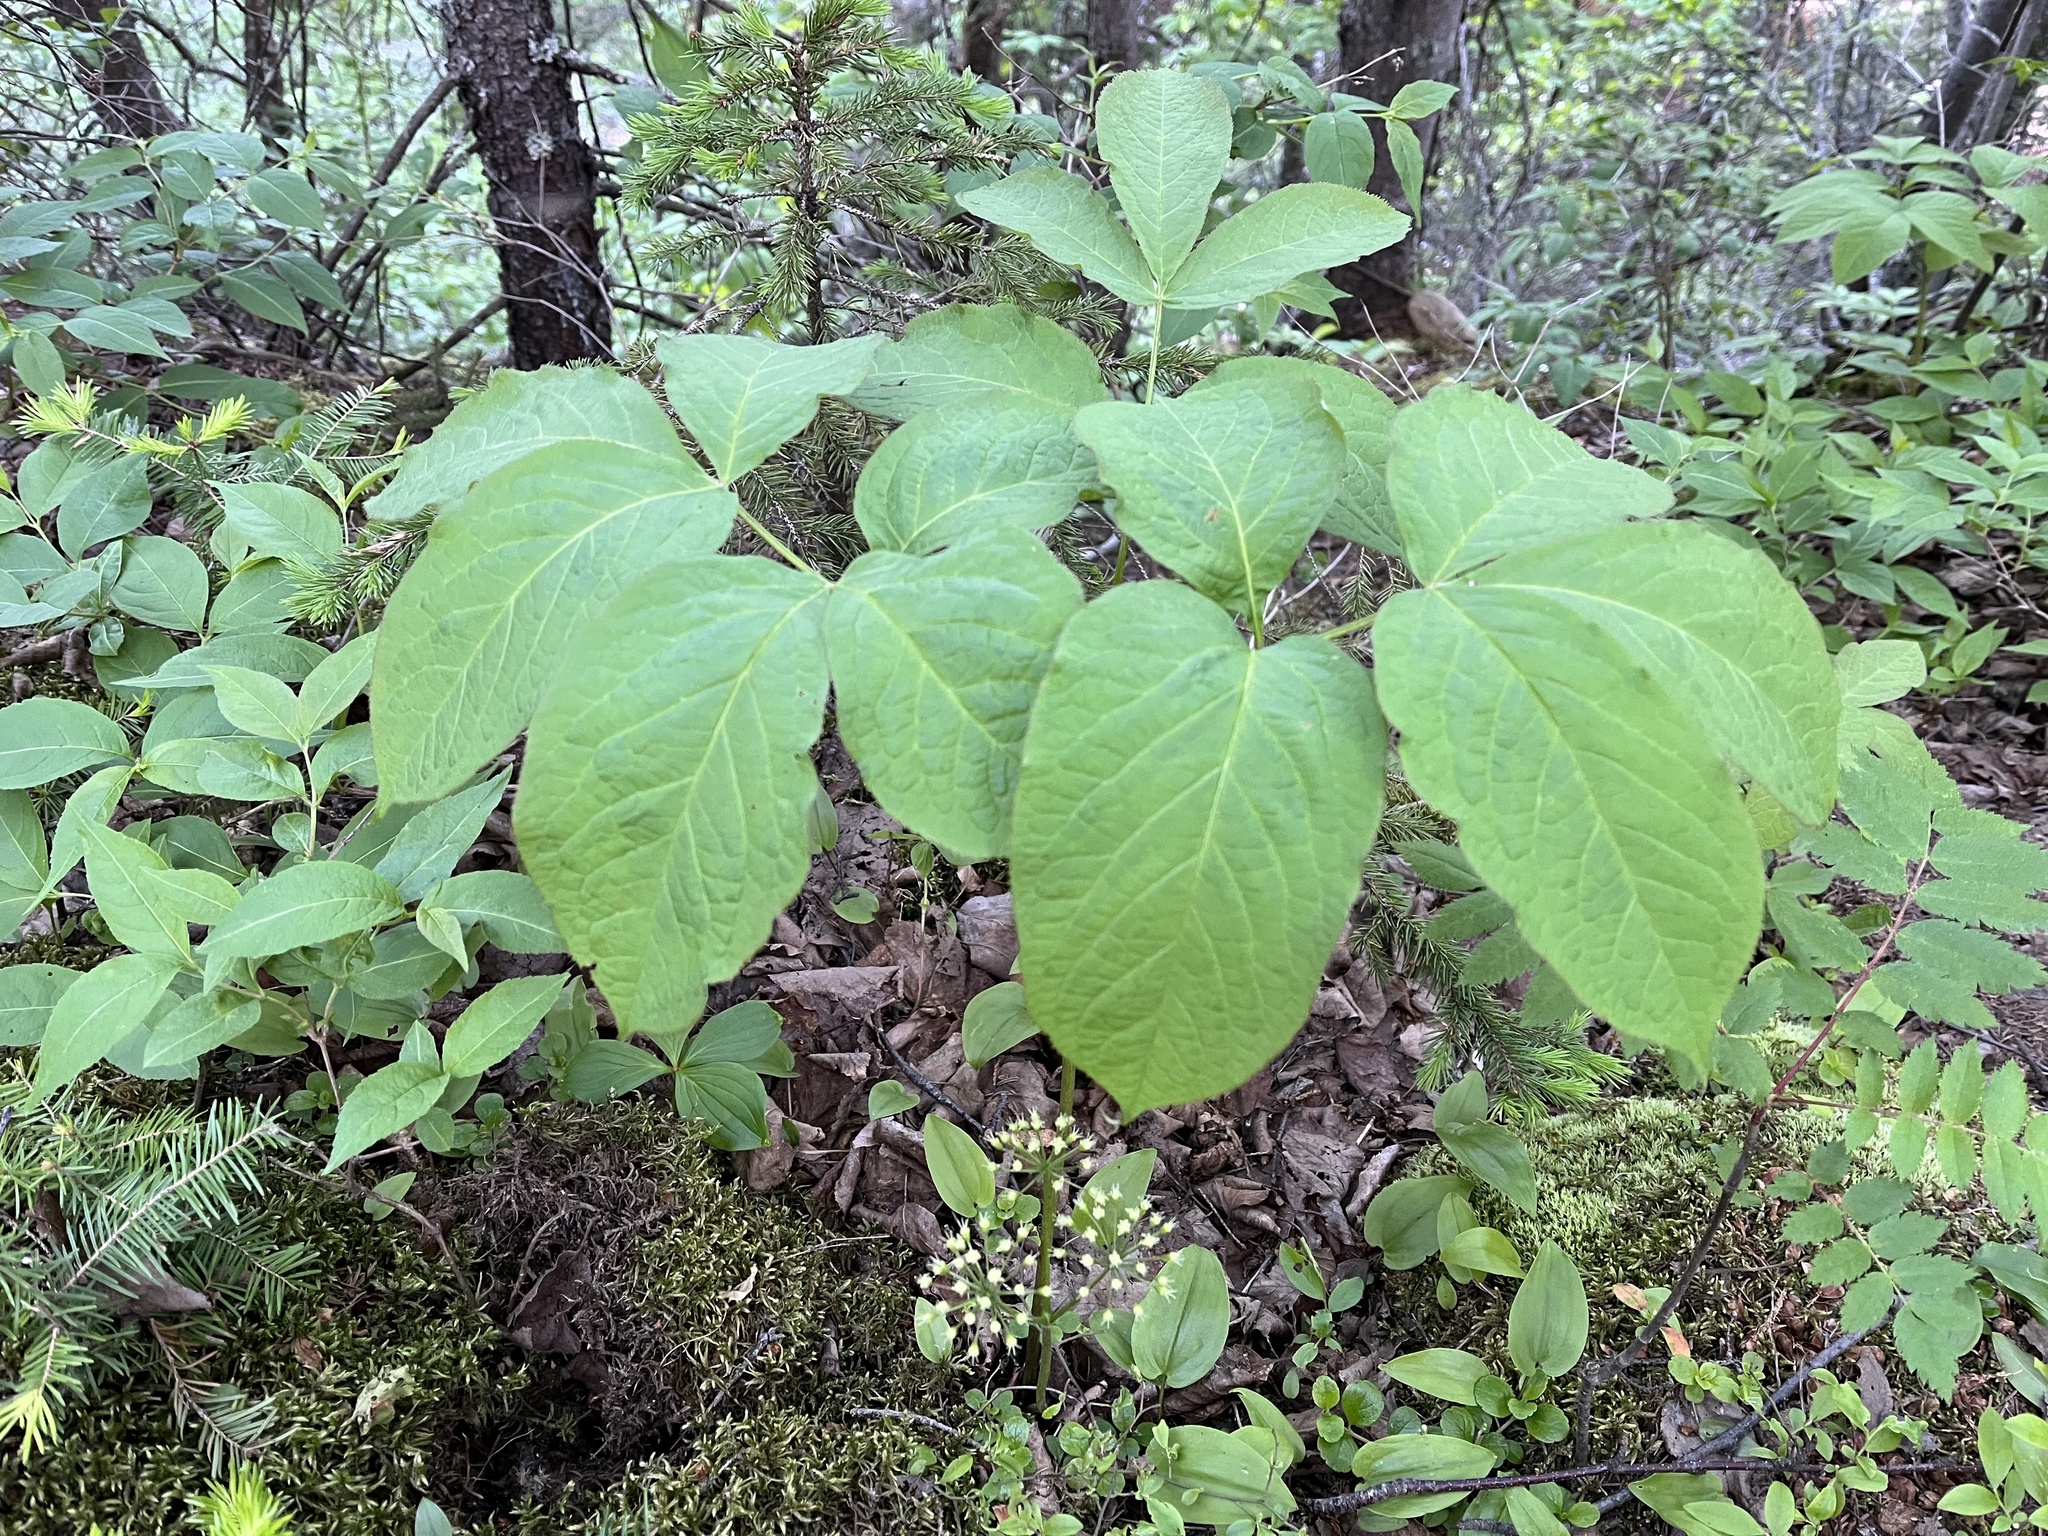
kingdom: Plantae
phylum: Tracheophyta
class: Magnoliopsida
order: Apiales
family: Araliaceae
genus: Aralia
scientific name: Aralia nudicaulis
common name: Wild sarsaparilla
